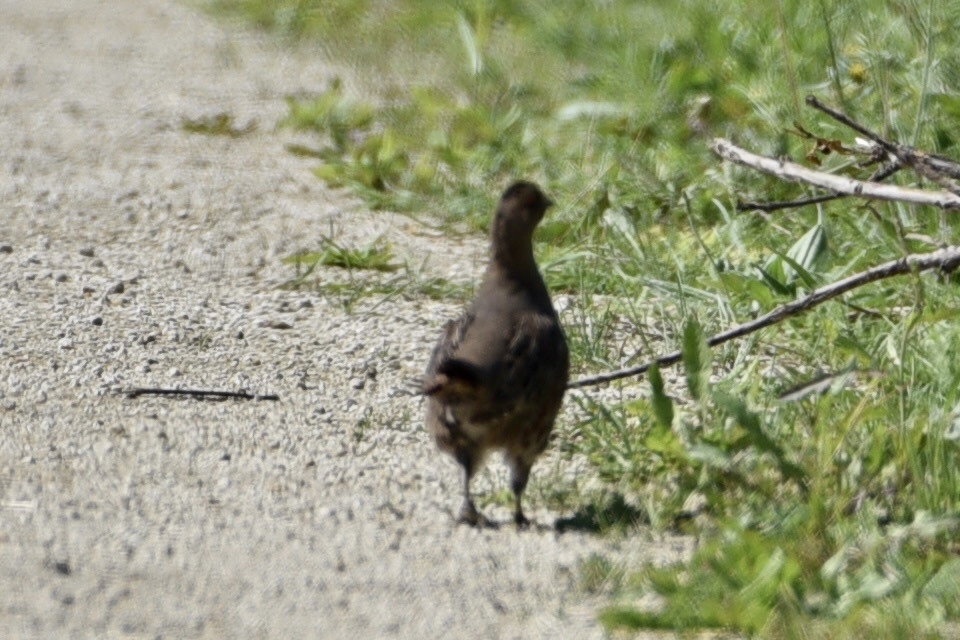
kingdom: Animalia
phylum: Chordata
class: Aves
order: Galliformes
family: Phasianidae
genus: Perdix
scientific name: Perdix perdix
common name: Grey partridge
